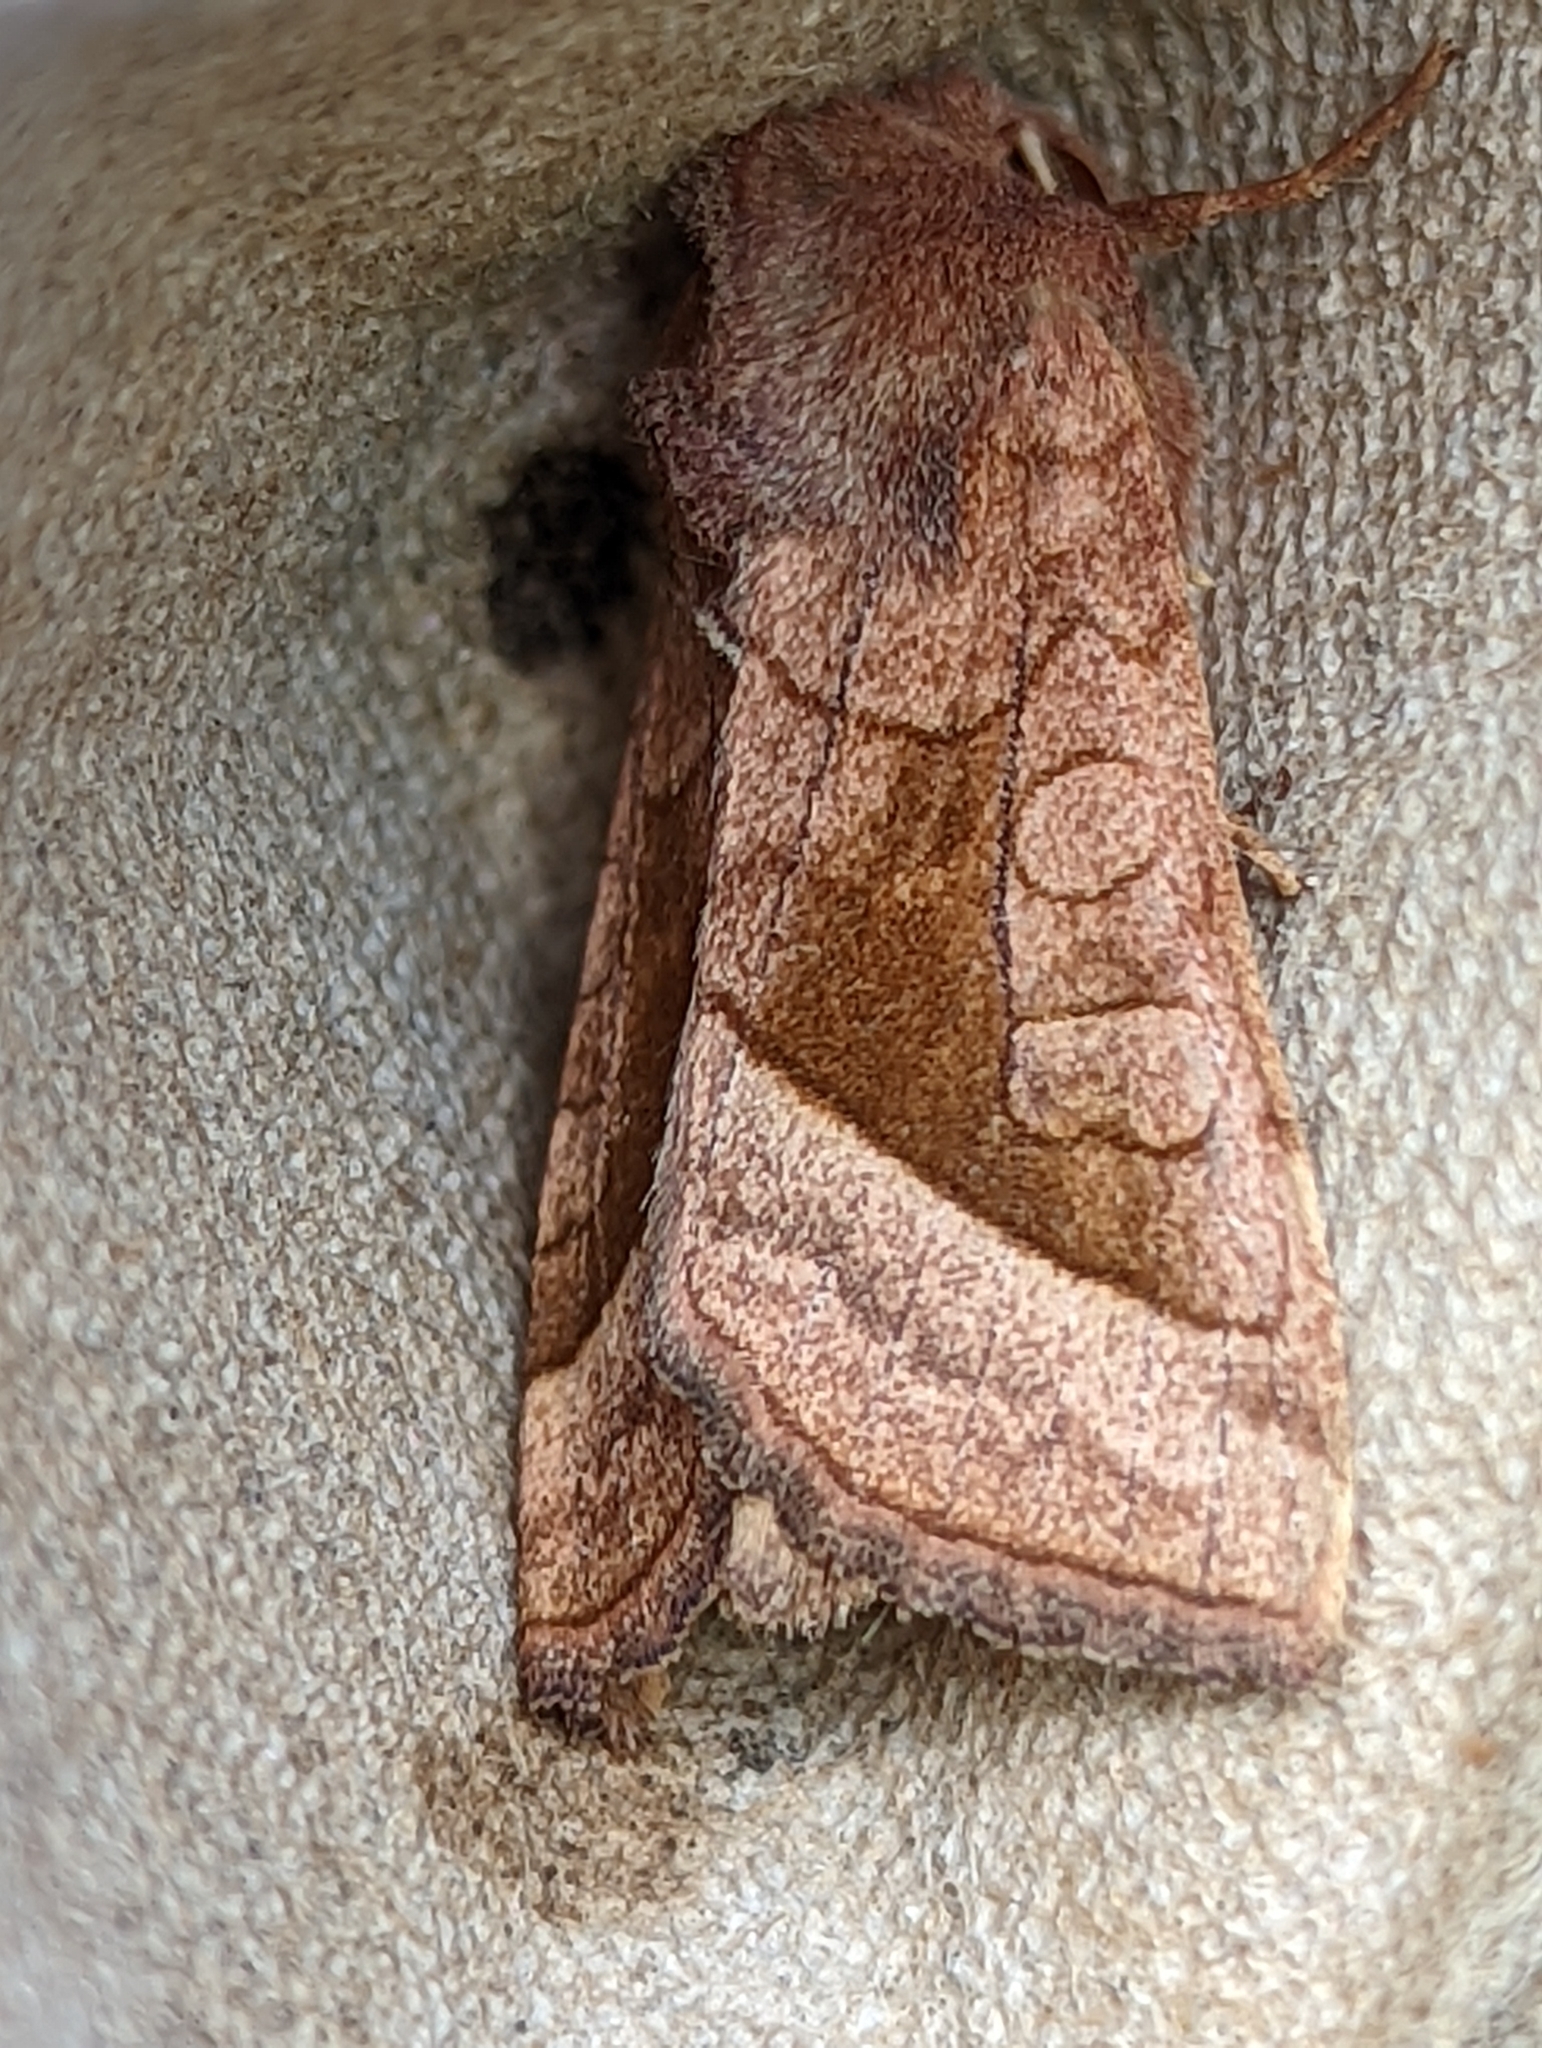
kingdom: Animalia
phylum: Arthropoda
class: Insecta
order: Lepidoptera
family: Noctuidae
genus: Hydraecia
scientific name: Hydraecia micacea
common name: Rosy rustic
